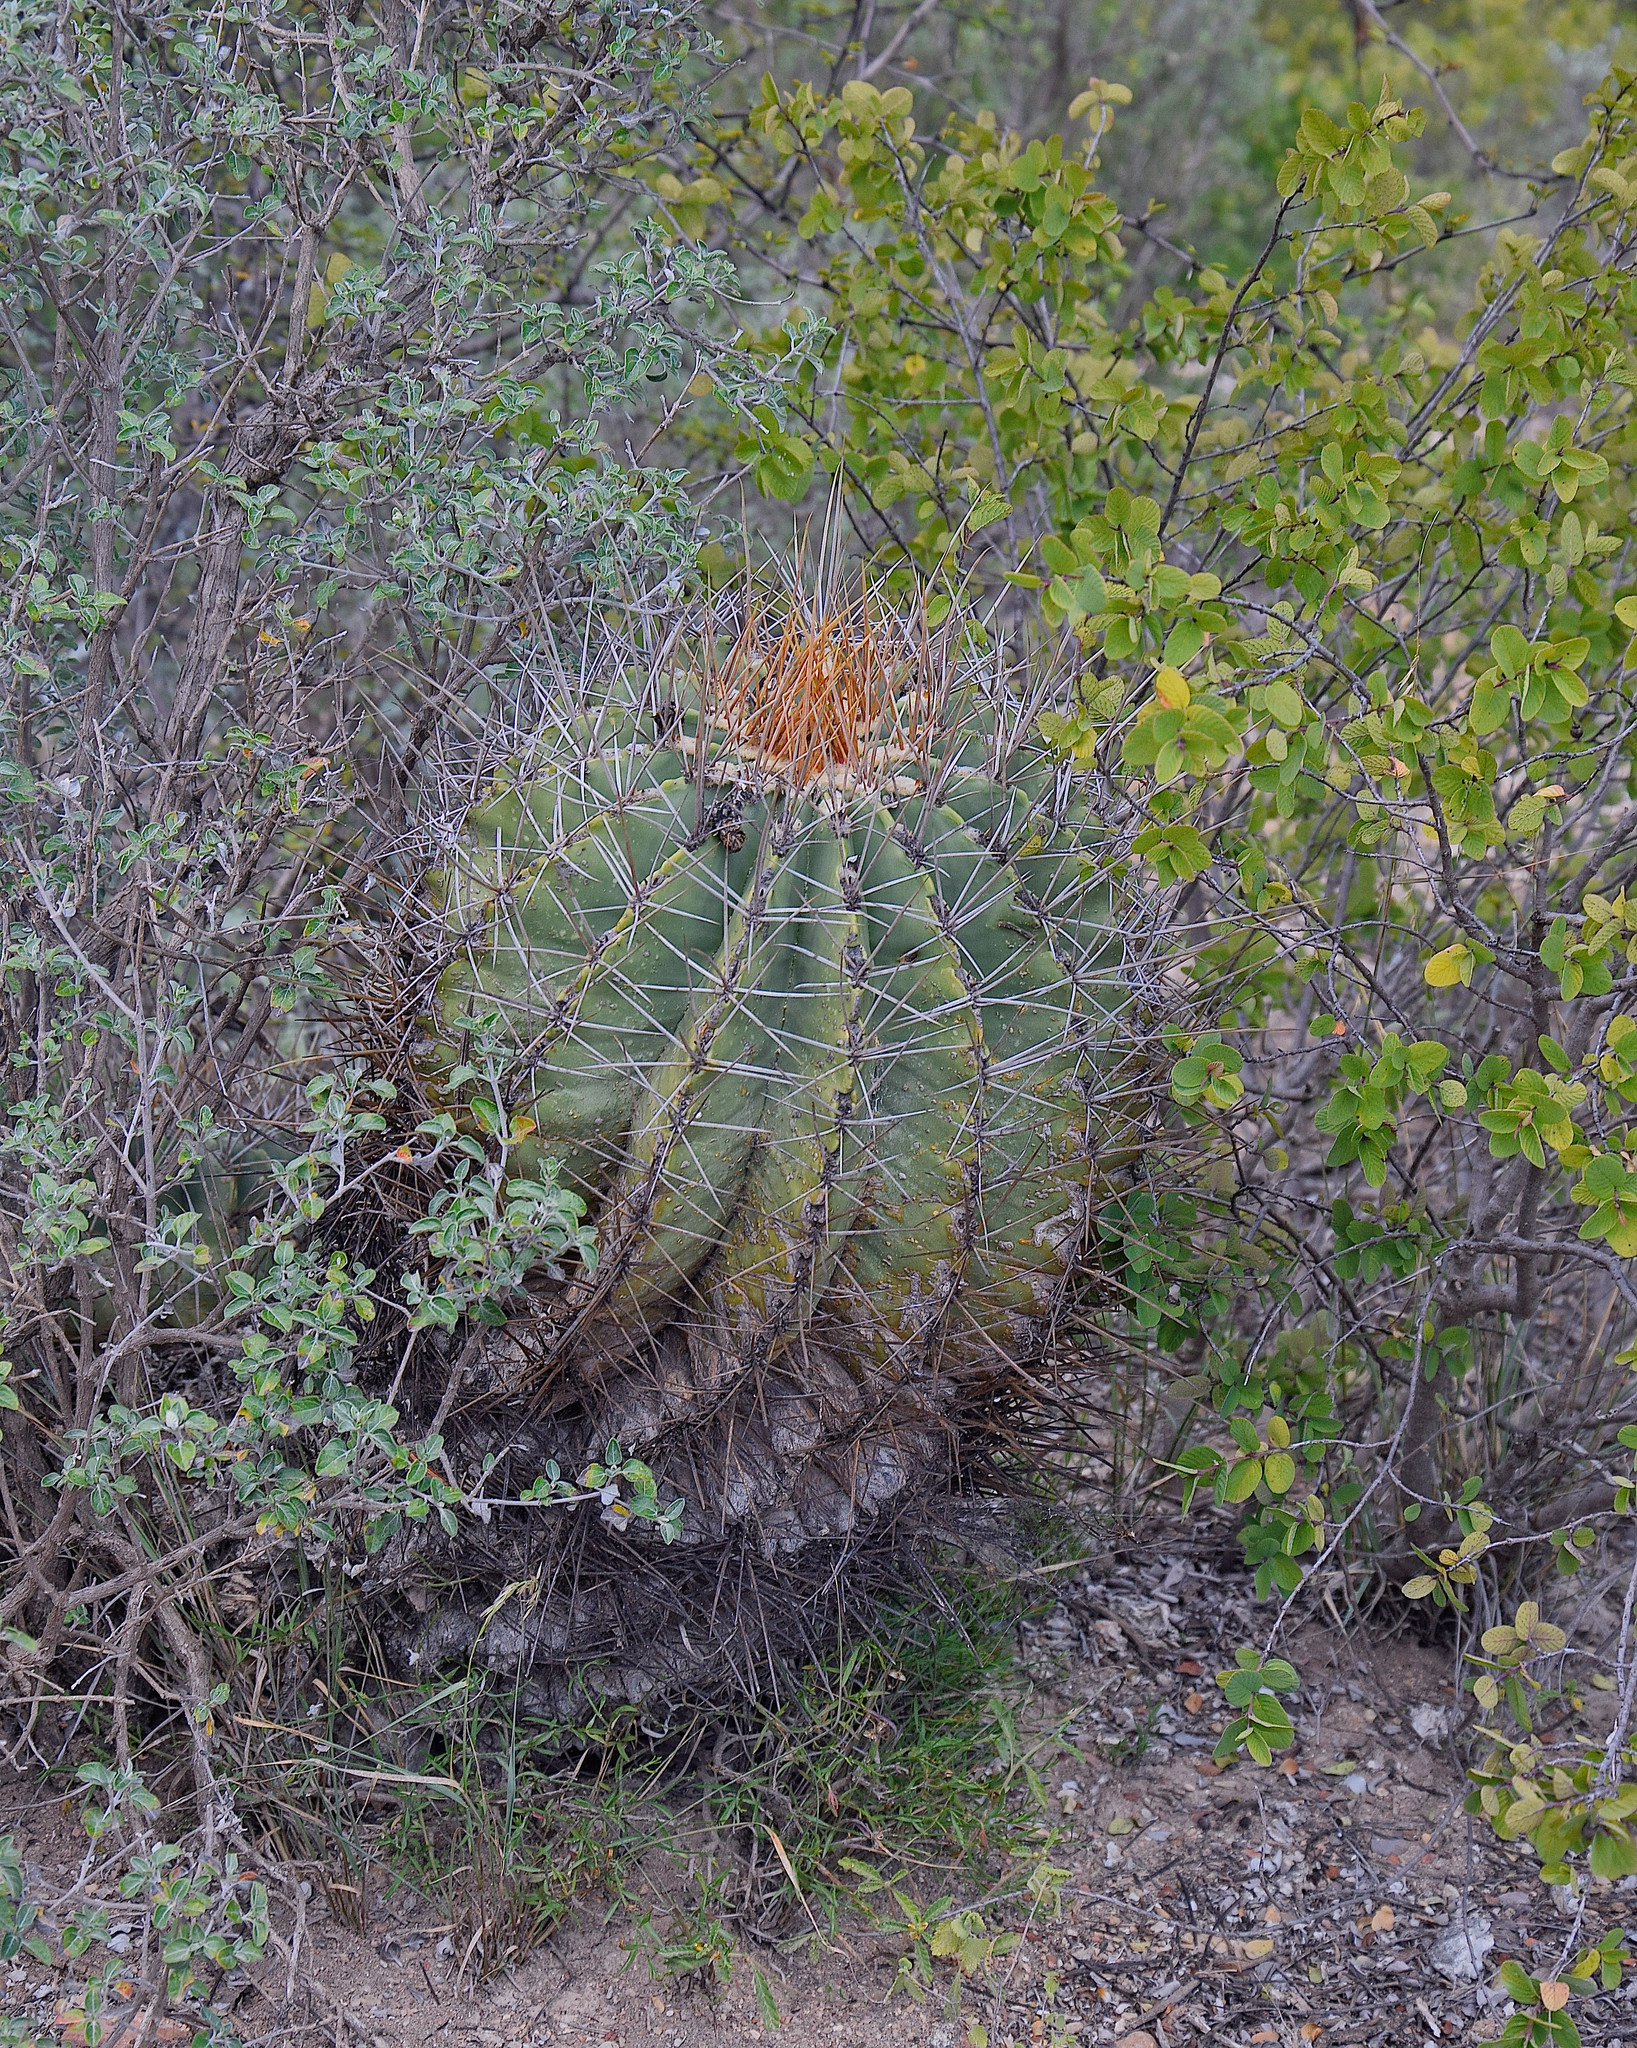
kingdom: Plantae
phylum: Tracheophyta
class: Magnoliopsida
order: Caryophyllales
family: Cactaceae
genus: Parrycactus
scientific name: Parrycactus echidne
